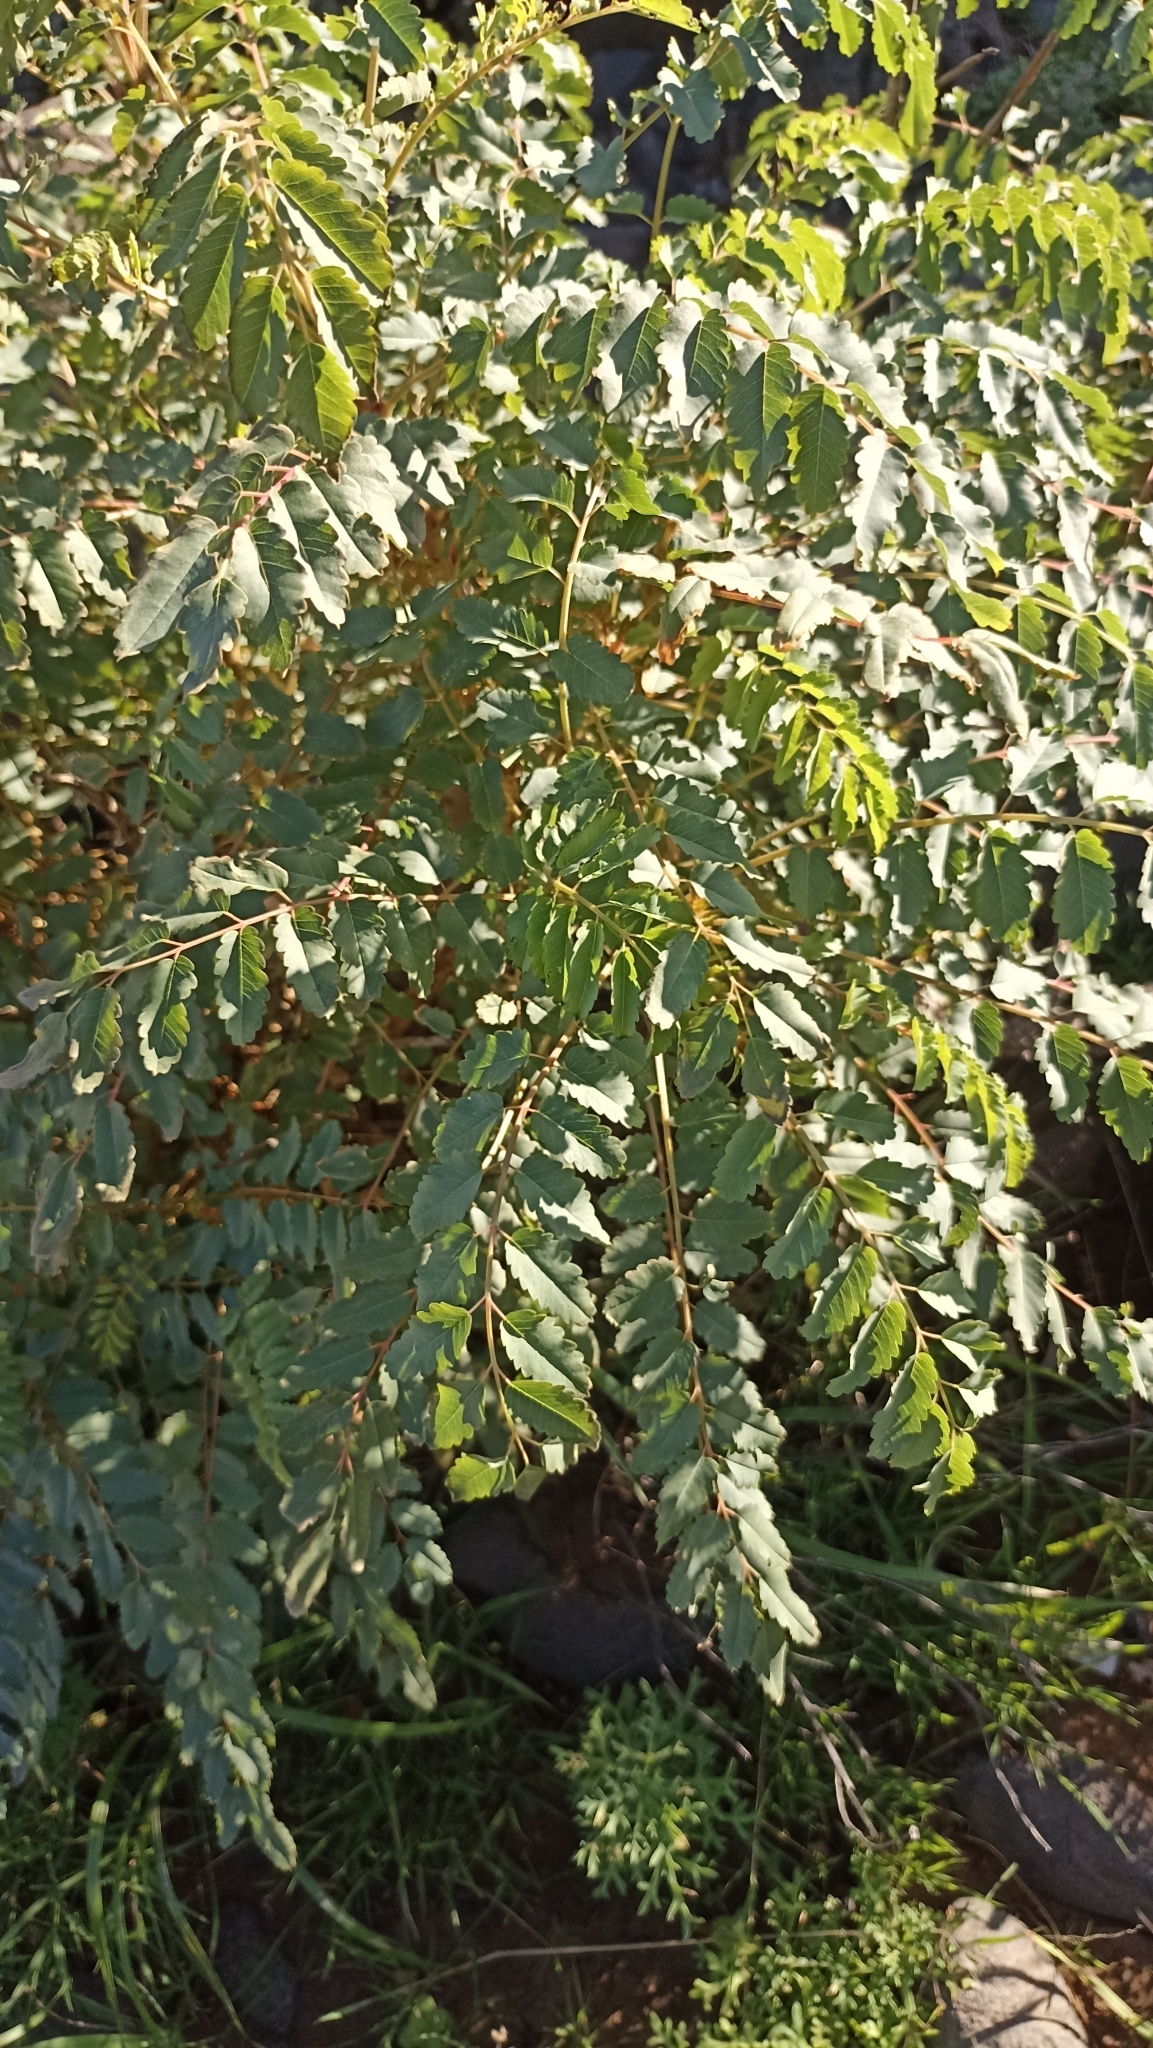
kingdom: Plantae
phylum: Tracheophyta
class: Magnoliopsida
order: Rosales
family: Rosaceae
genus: Marcetella
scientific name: Marcetella moquiniana
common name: Burnet tree
